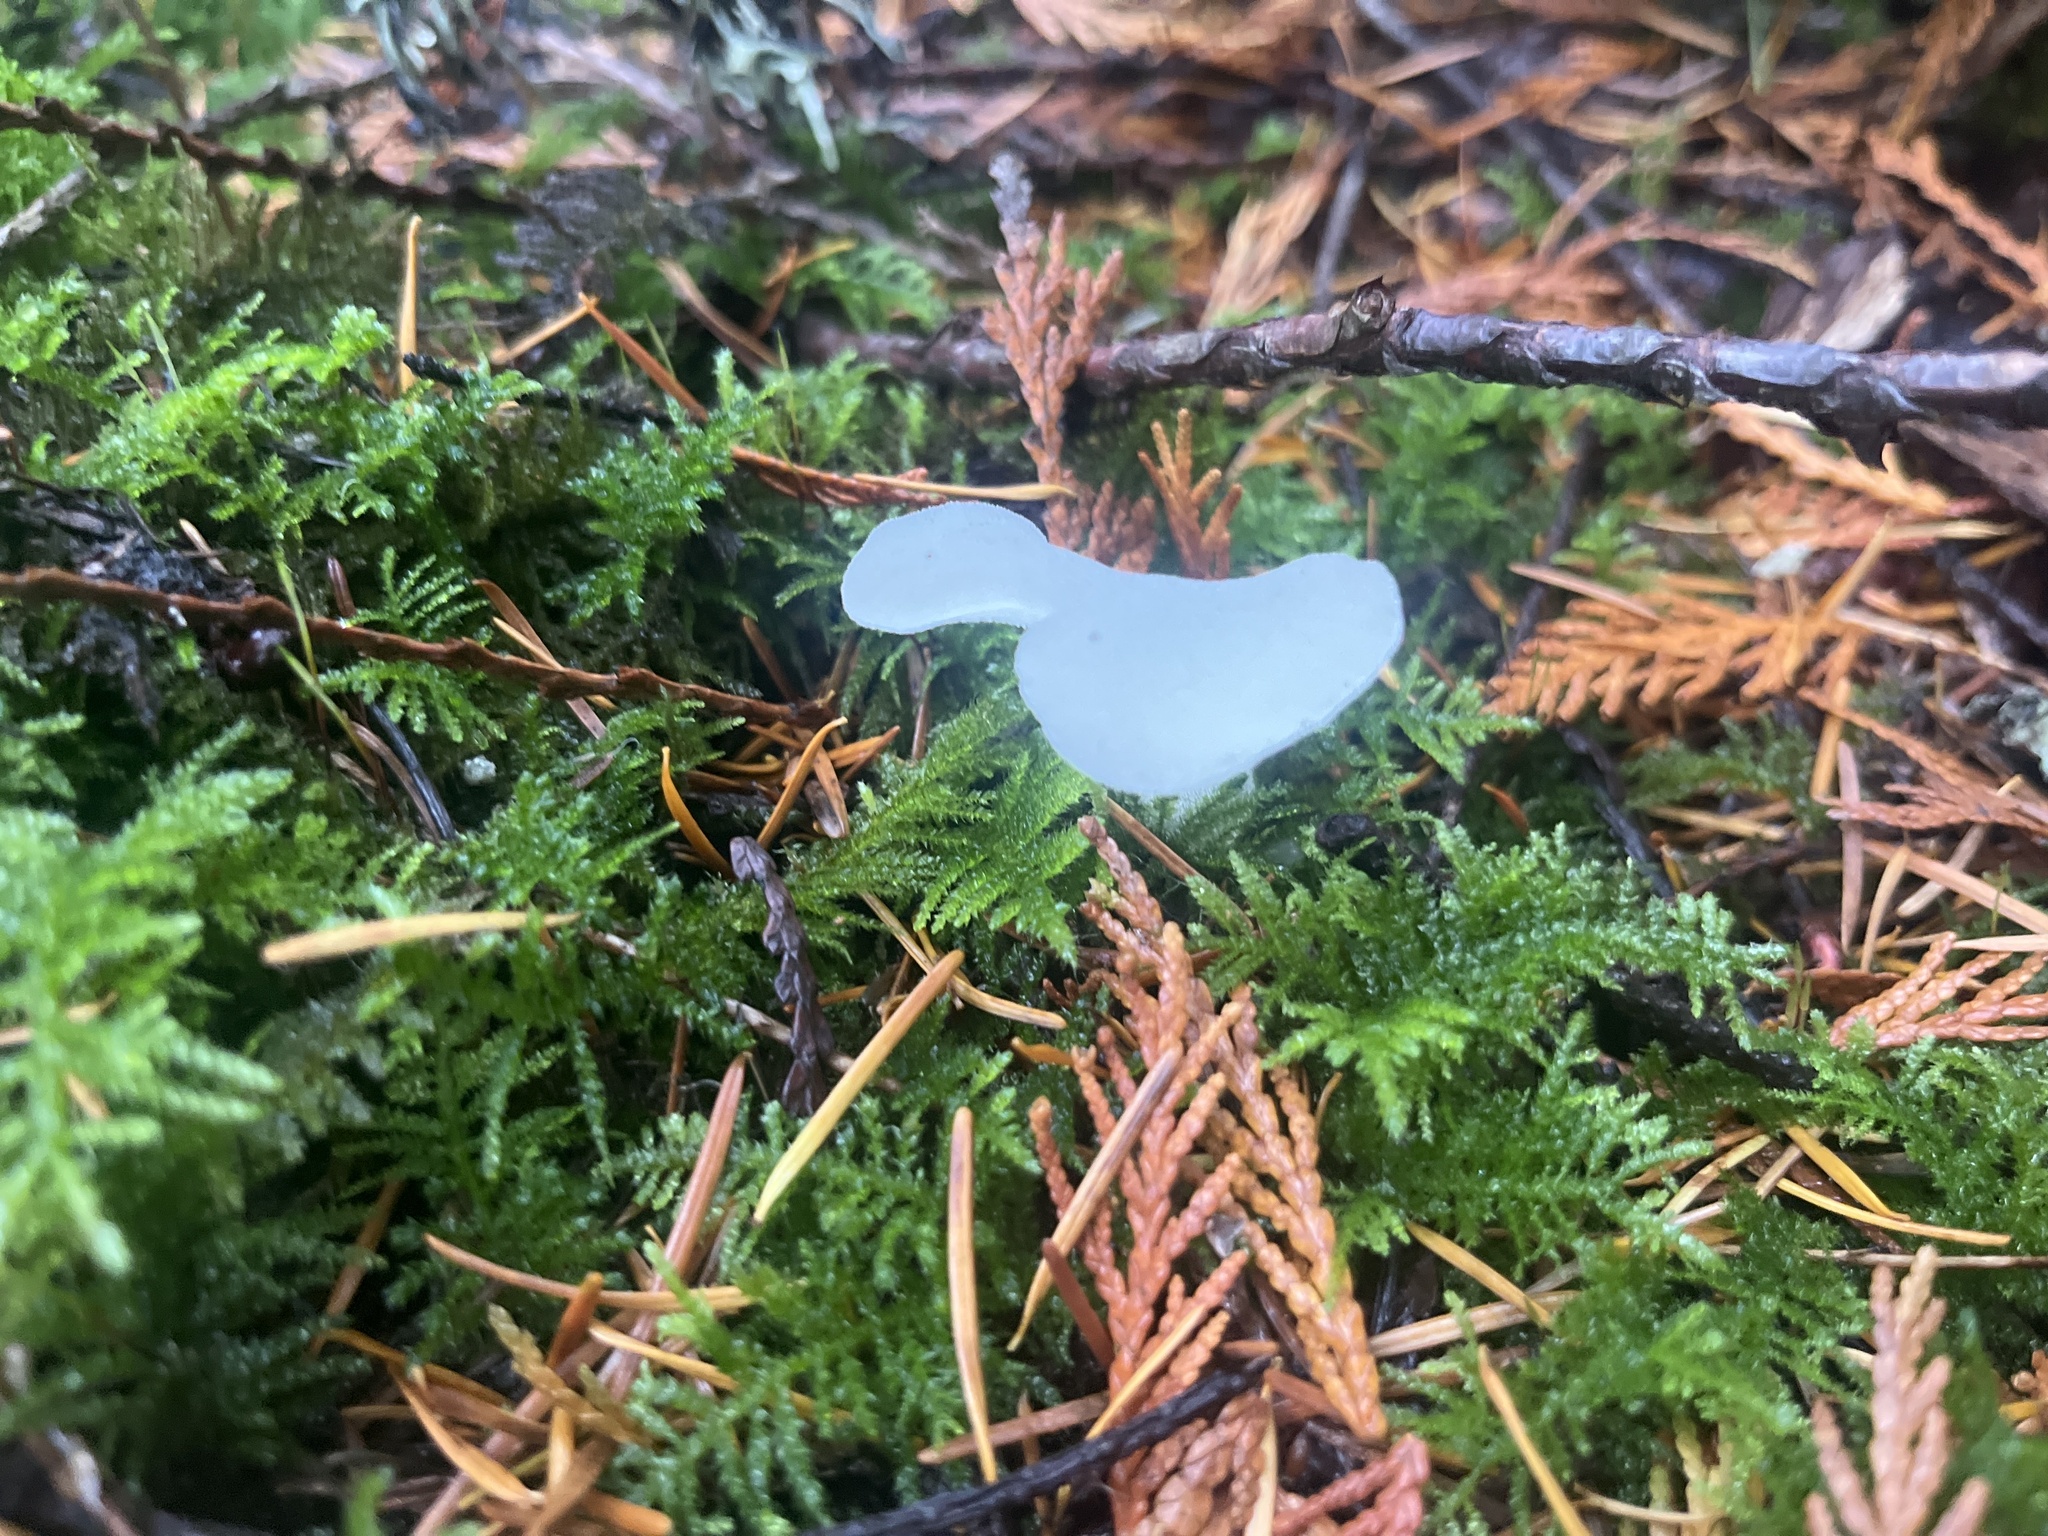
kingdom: Fungi
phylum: Basidiomycota
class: Agaricomycetes
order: Auriculariales
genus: Pseudohydnum
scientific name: Pseudohydnum gelatinosum
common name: Jelly tongue
